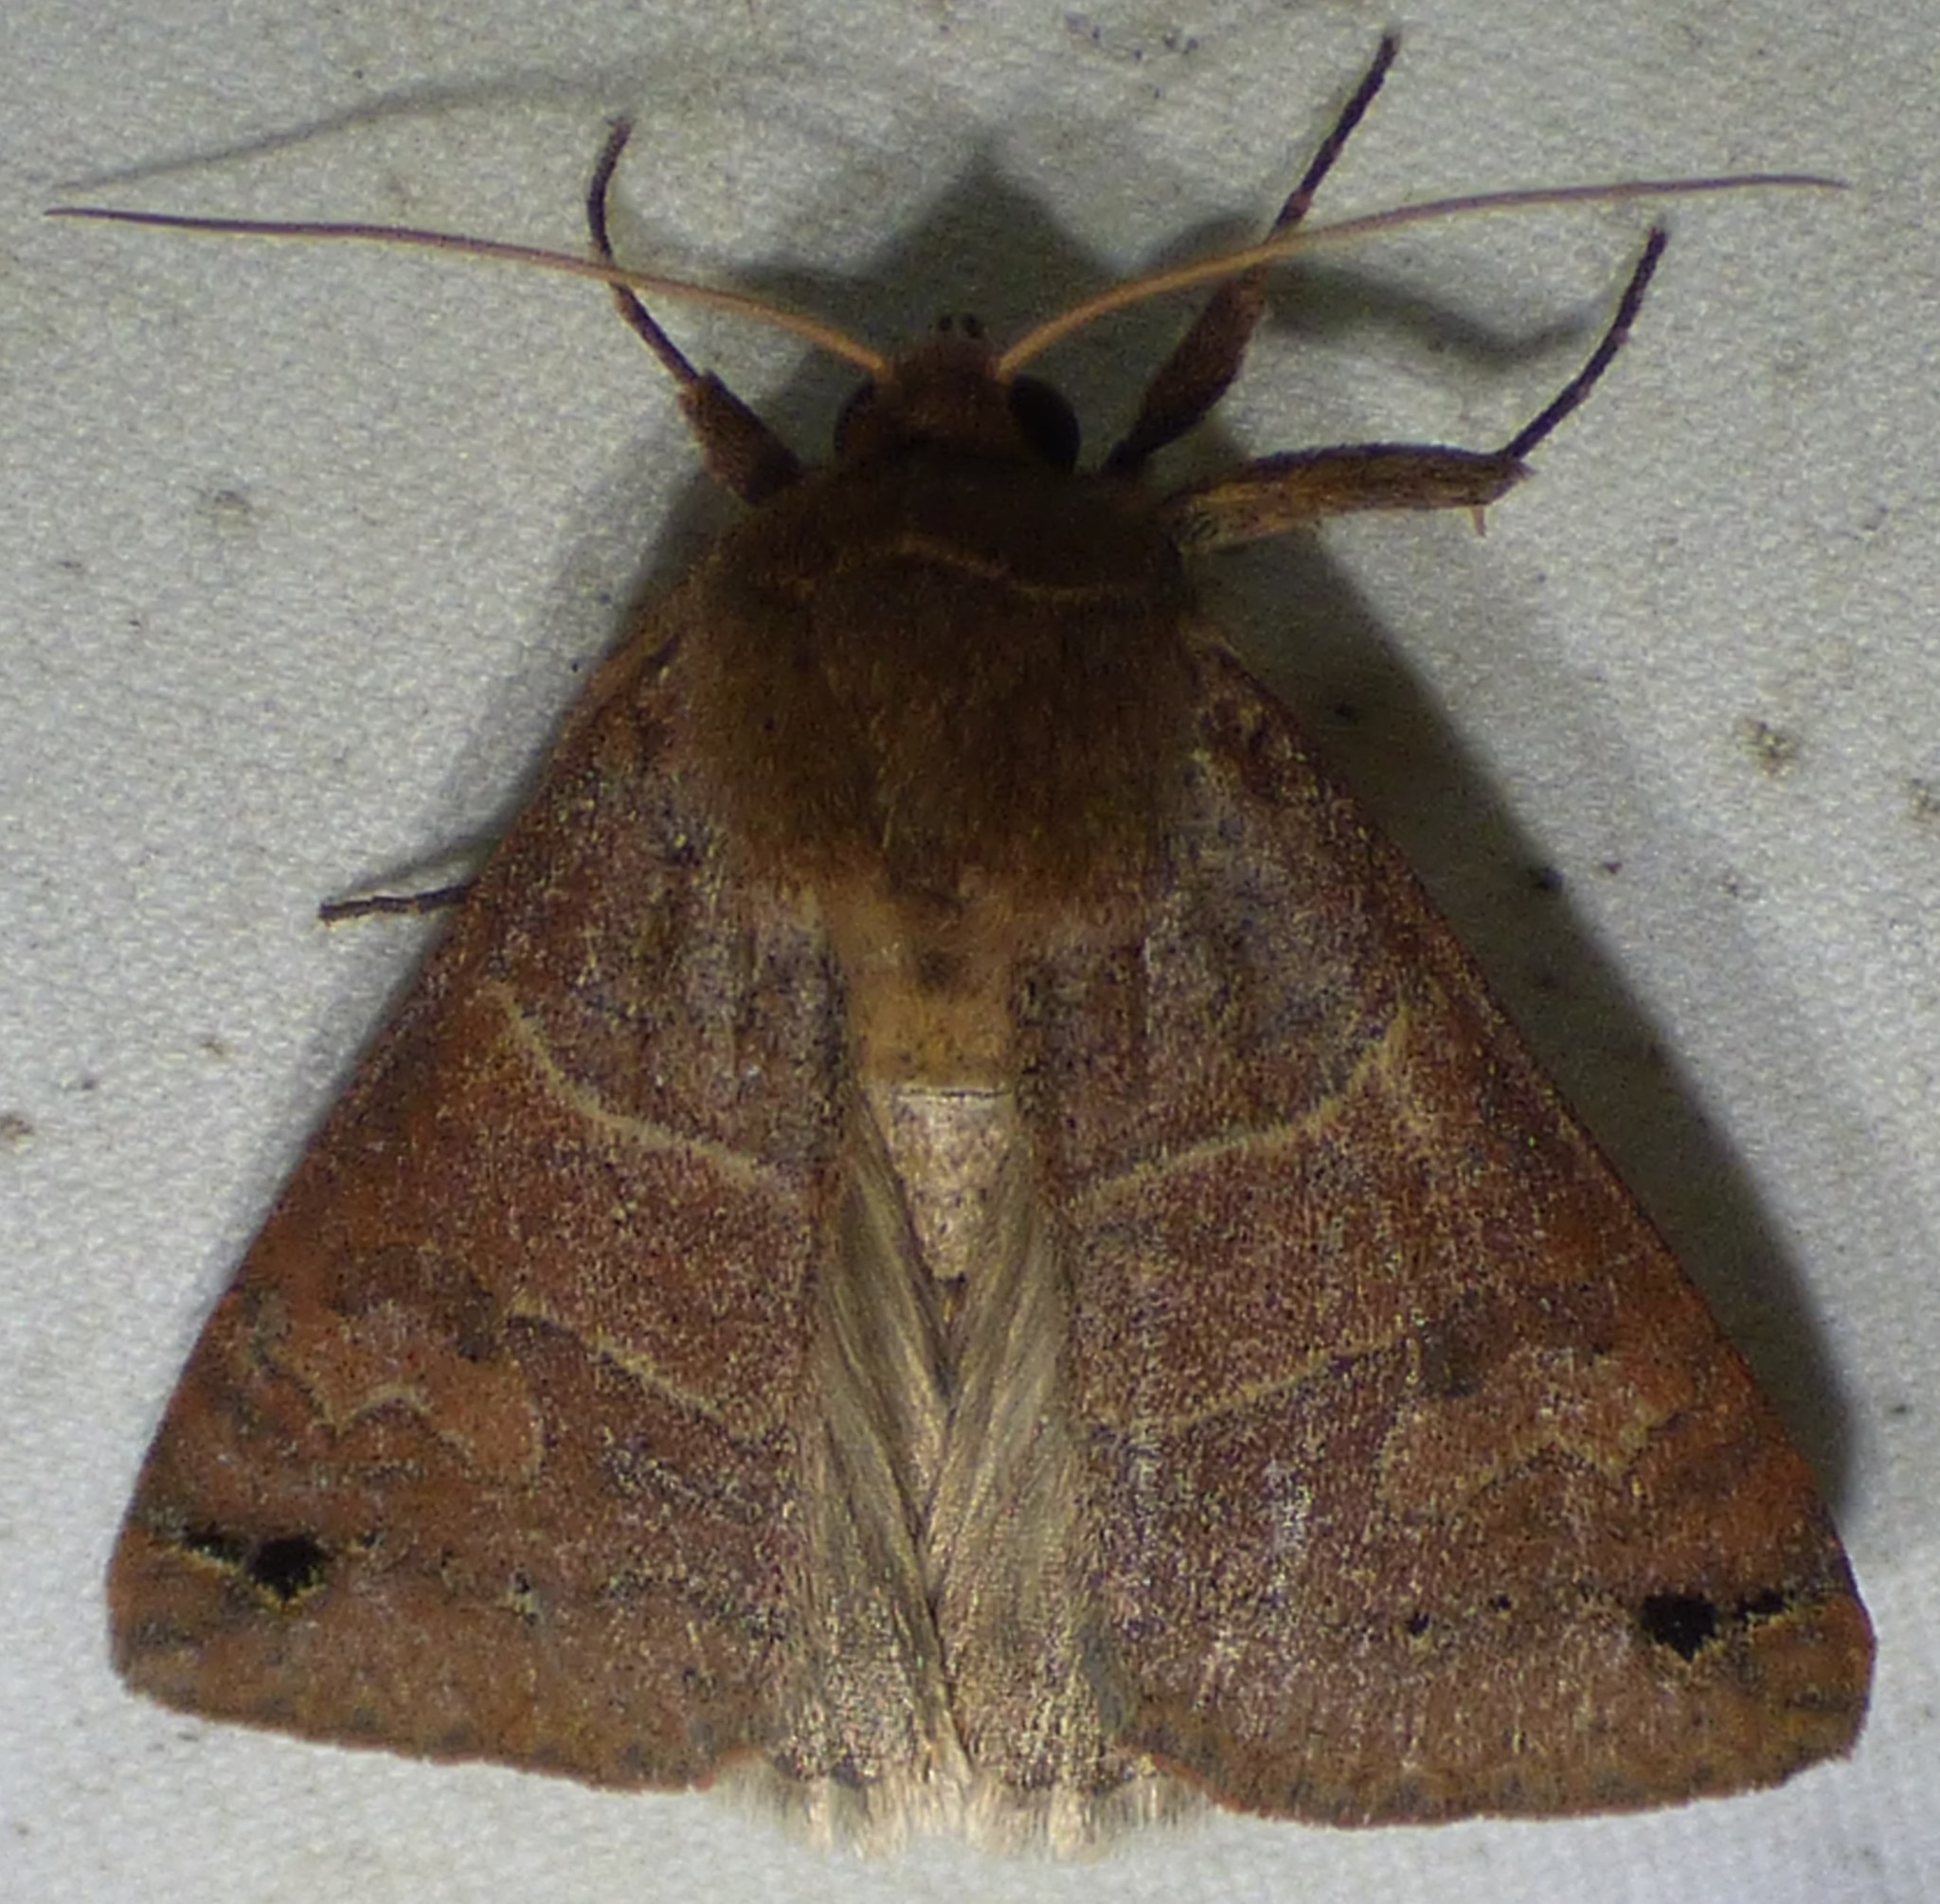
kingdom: Animalia
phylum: Arthropoda
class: Insecta
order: Lepidoptera
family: Erebidae
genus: Cissusa
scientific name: Cissusa spadix
